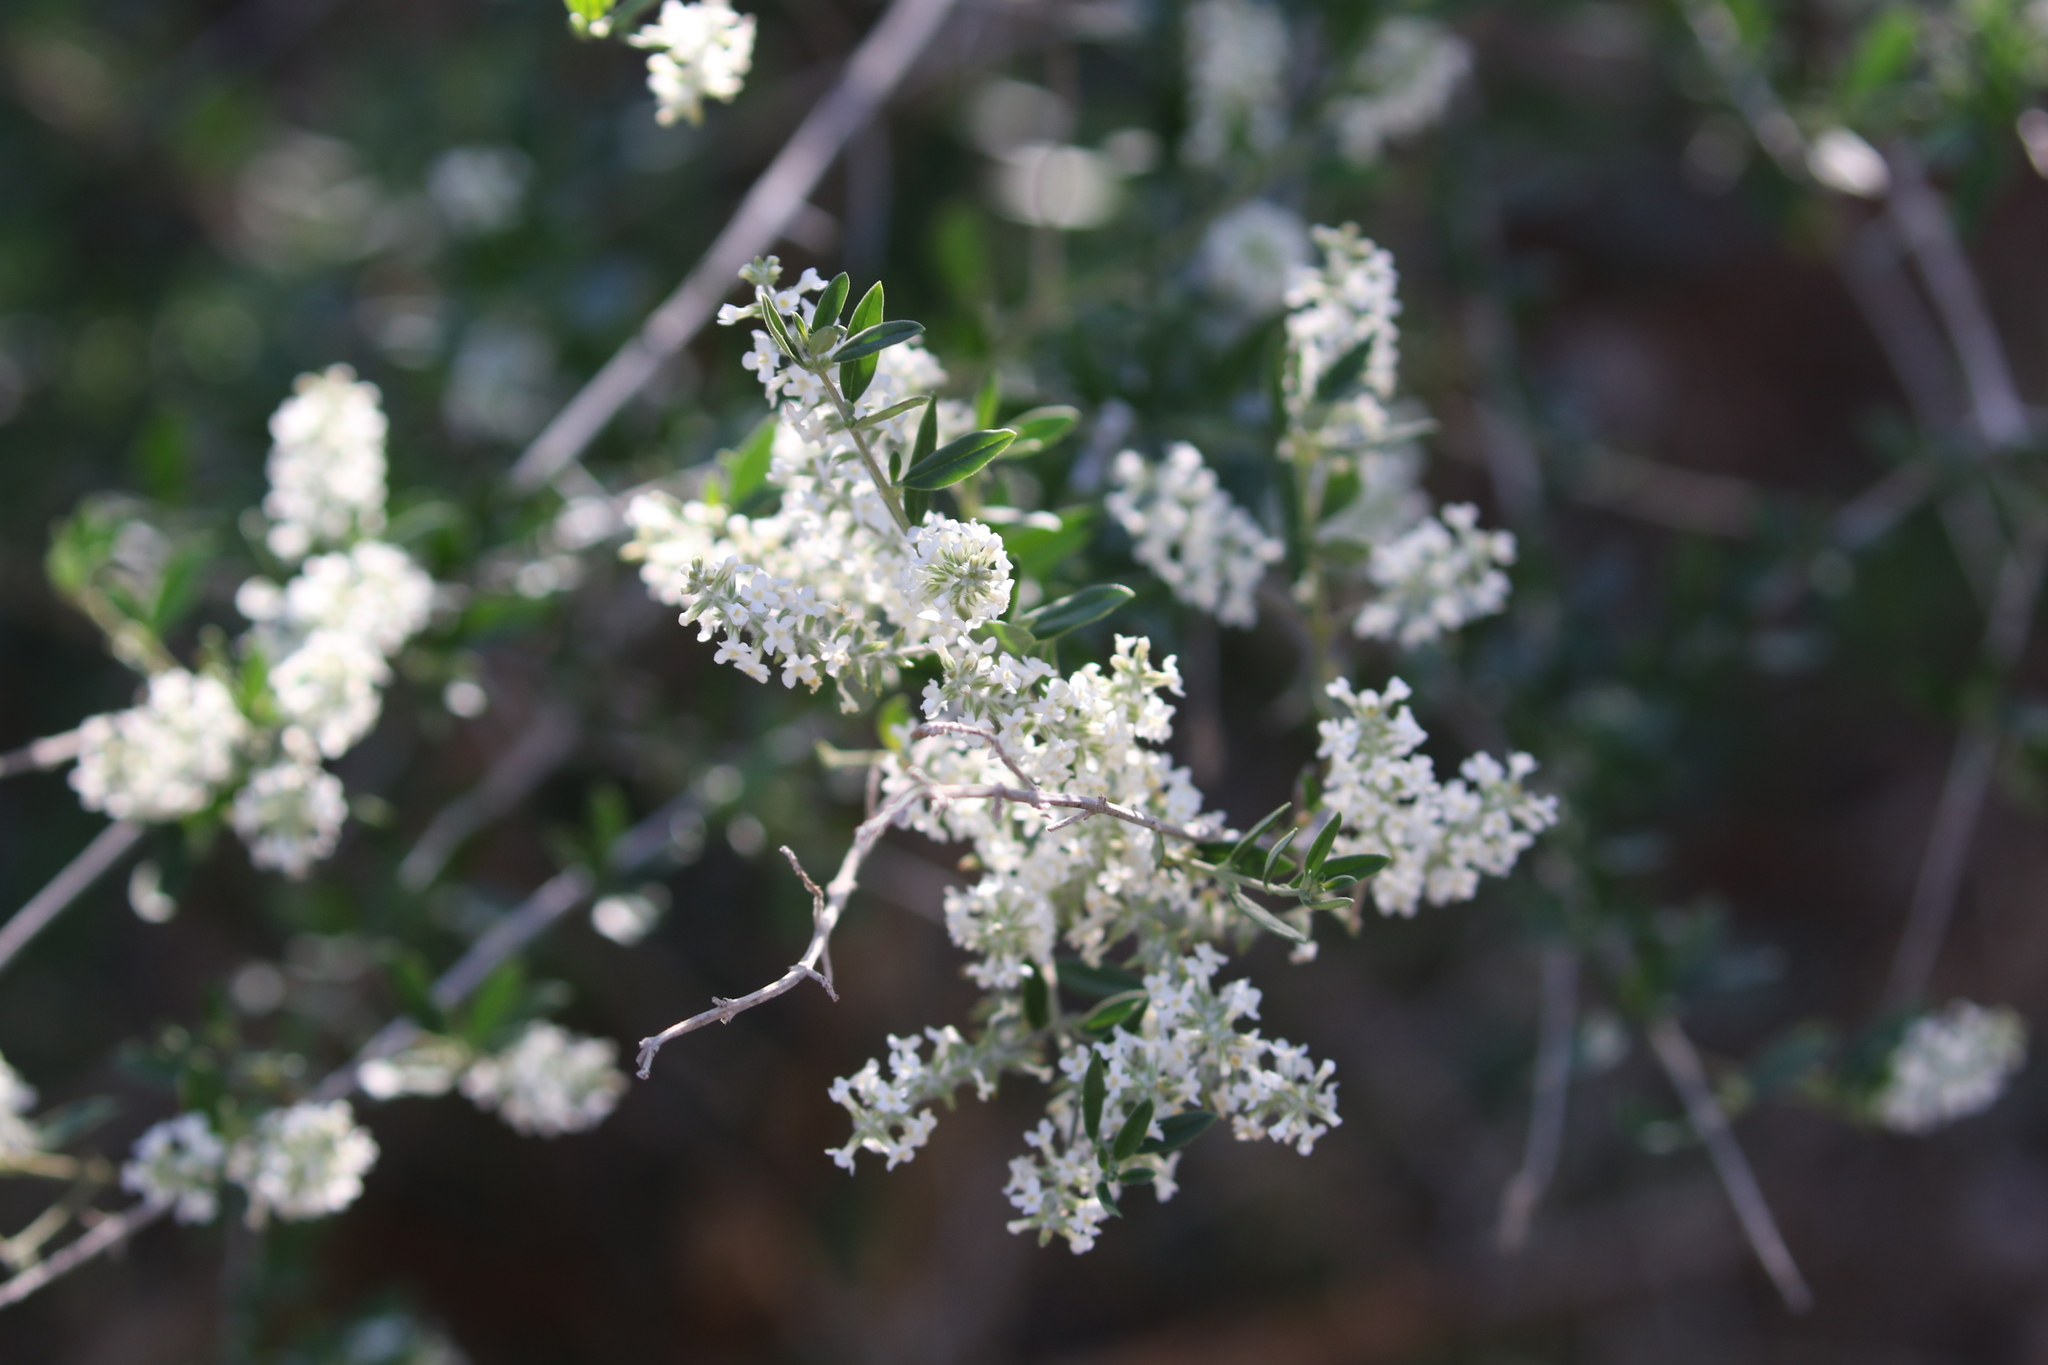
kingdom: Plantae
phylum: Tracheophyta
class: Magnoliopsida
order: Lamiales
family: Verbenaceae
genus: Aloysia
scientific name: Aloysia gratissima
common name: Common bee-brush
